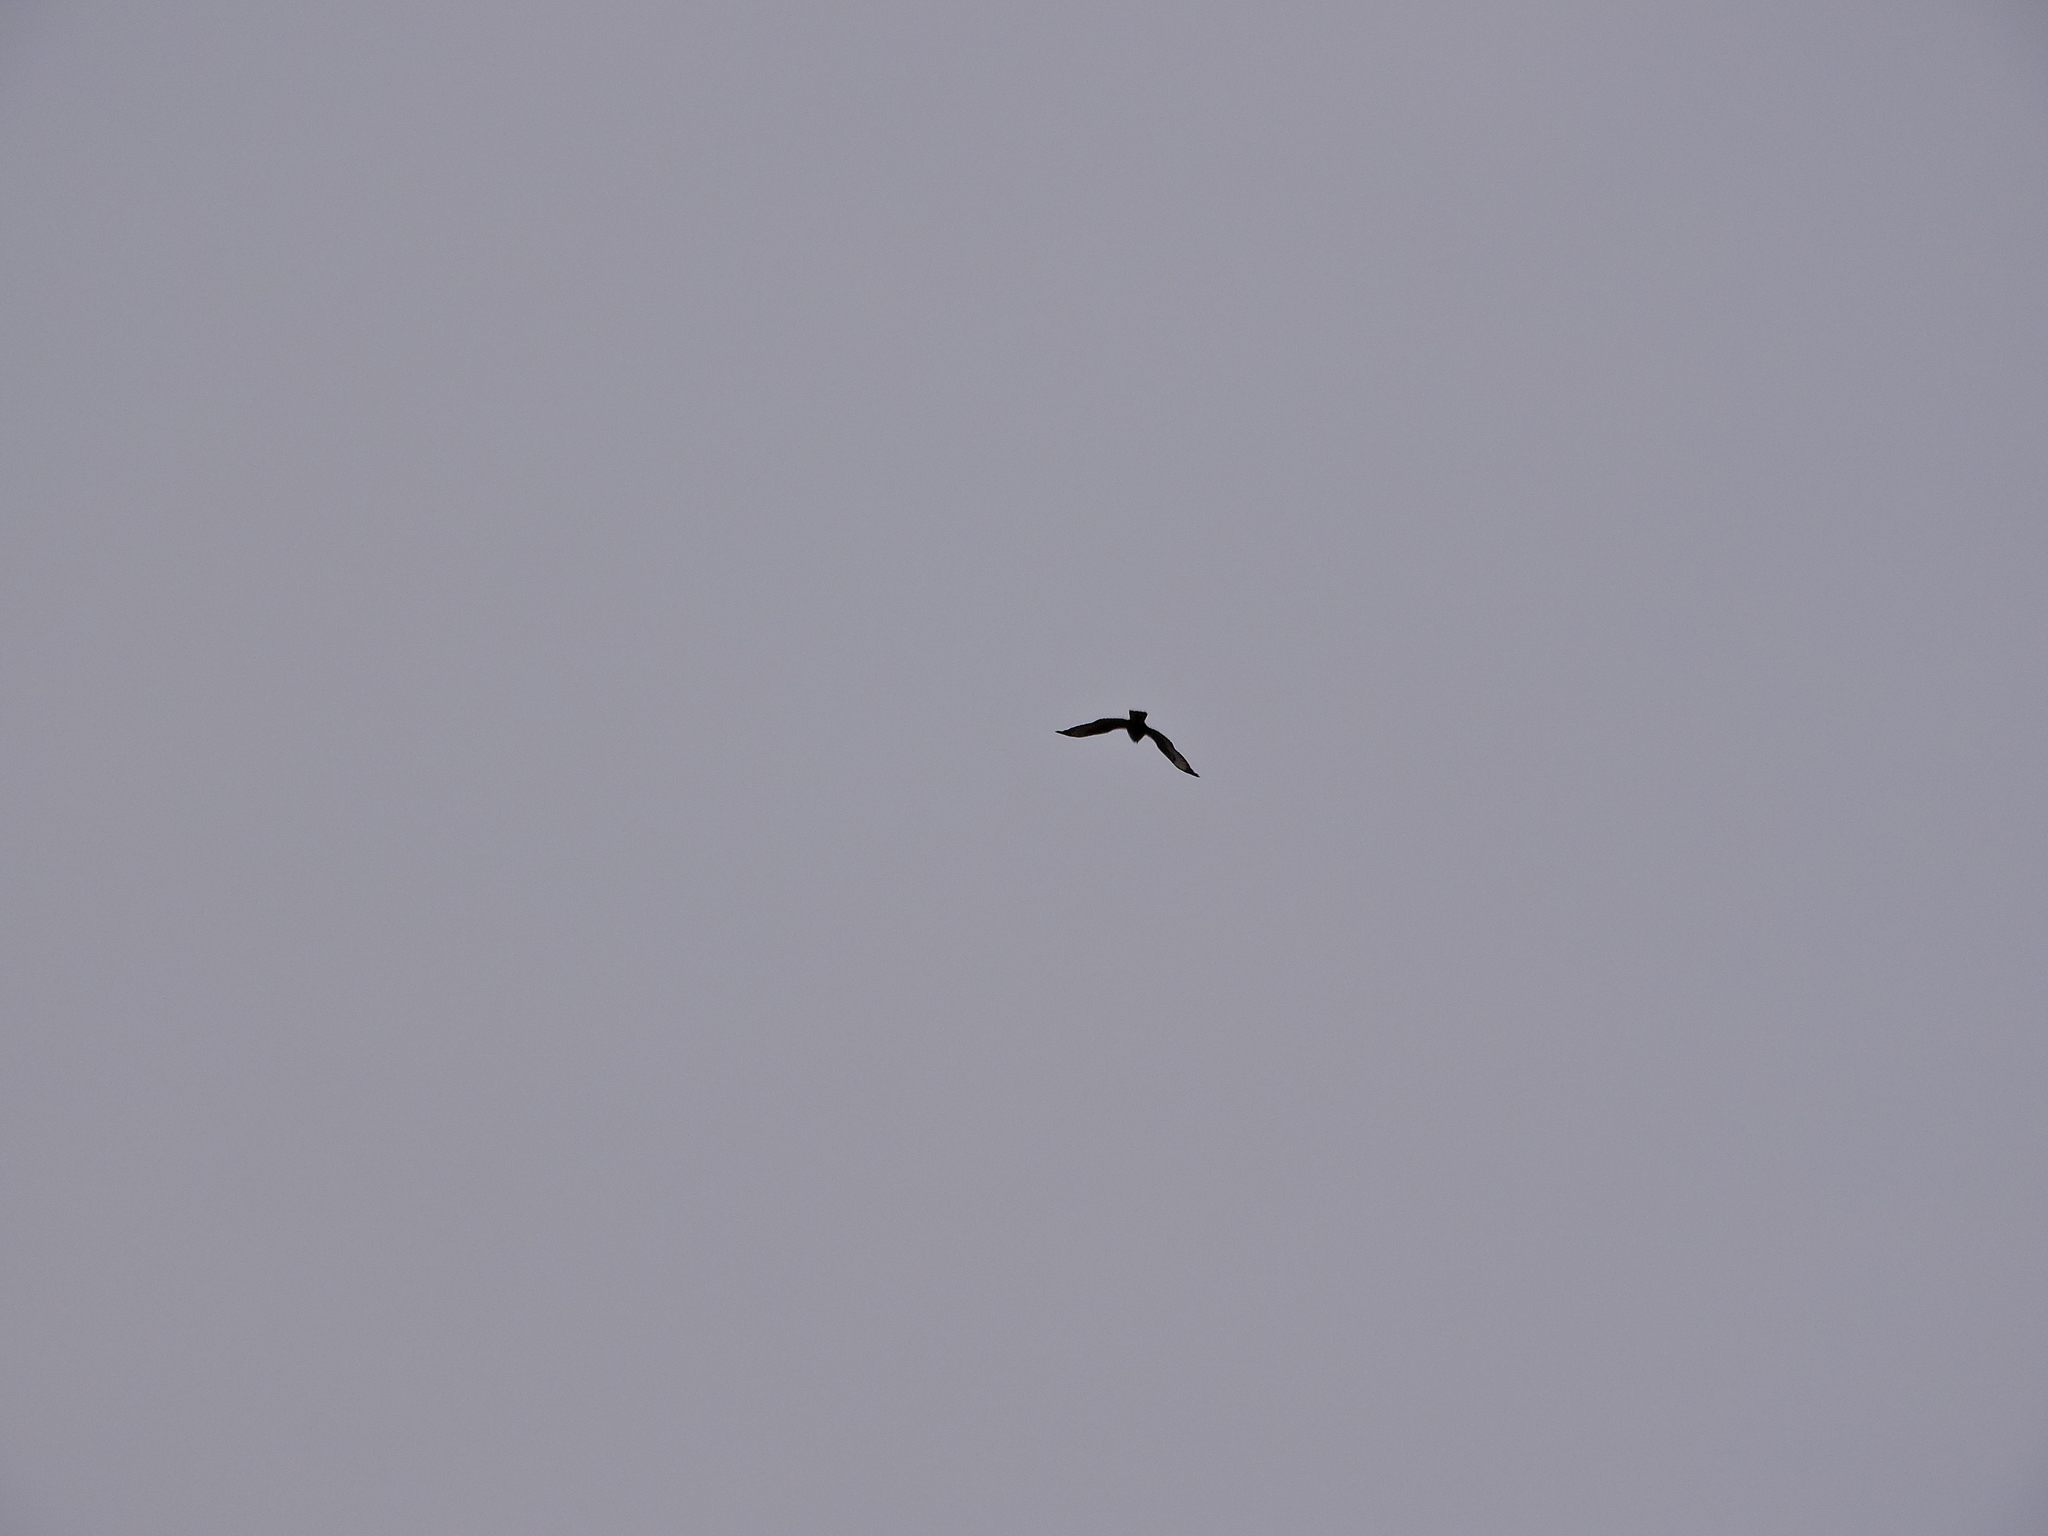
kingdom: Animalia
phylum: Chordata
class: Aves
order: Falconiformes
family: Falconidae
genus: Falco
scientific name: Falco tinnunculus
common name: Common kestrel
